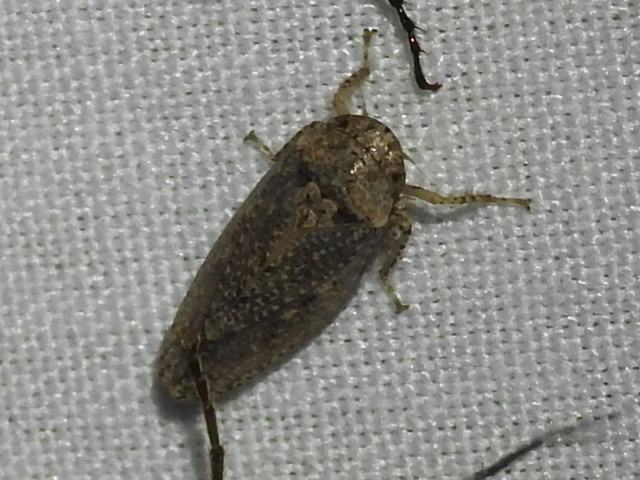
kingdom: Animalia
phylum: Arthropoda
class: Insecta
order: Hemiptera
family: Cicadellidae
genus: Curtara
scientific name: Curtara insularis
